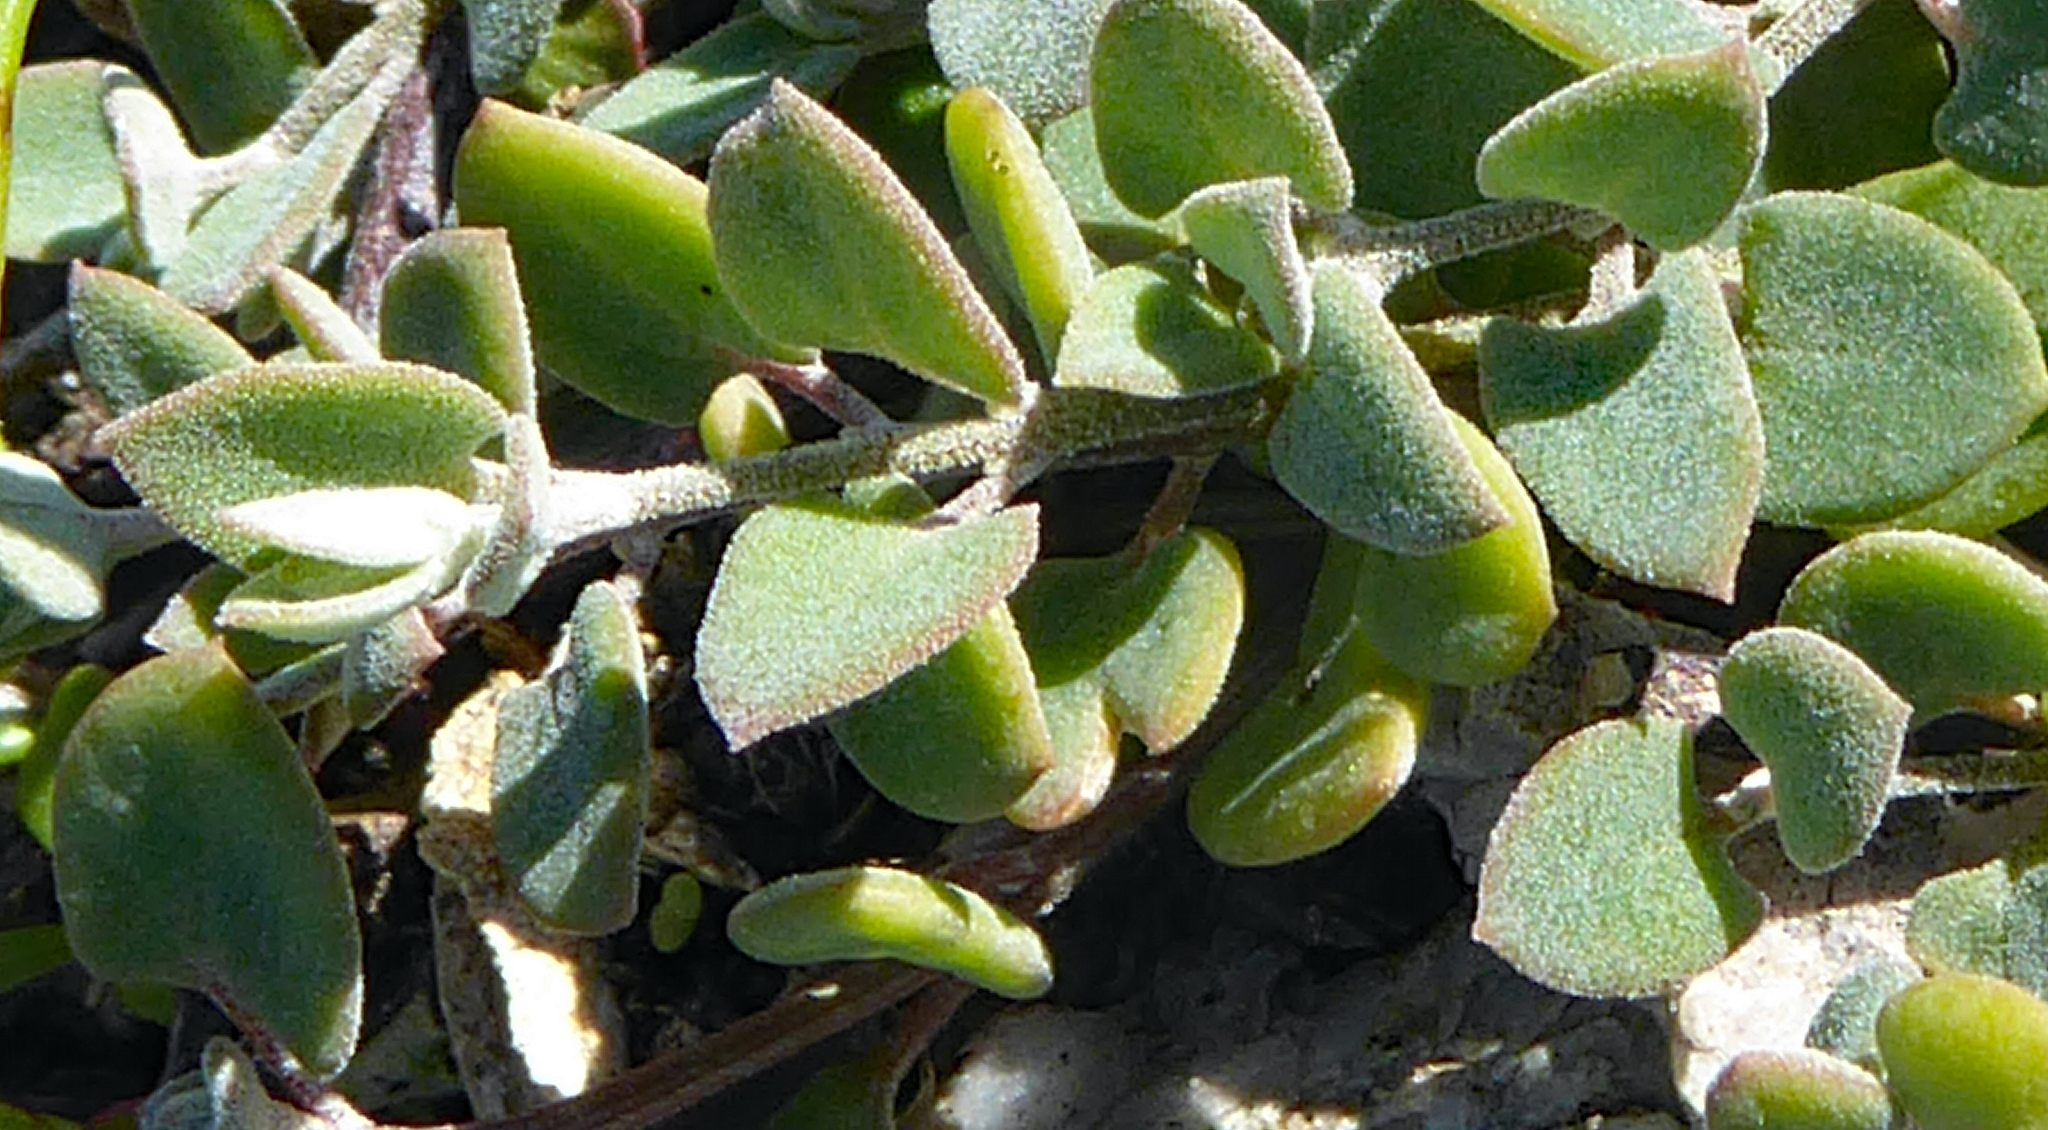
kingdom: Plantae
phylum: Tracheophyta
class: Magnoliopsida
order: Caryophyllales
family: Amaranthaceae
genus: Chenopodium
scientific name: Chenopodium triandrum
